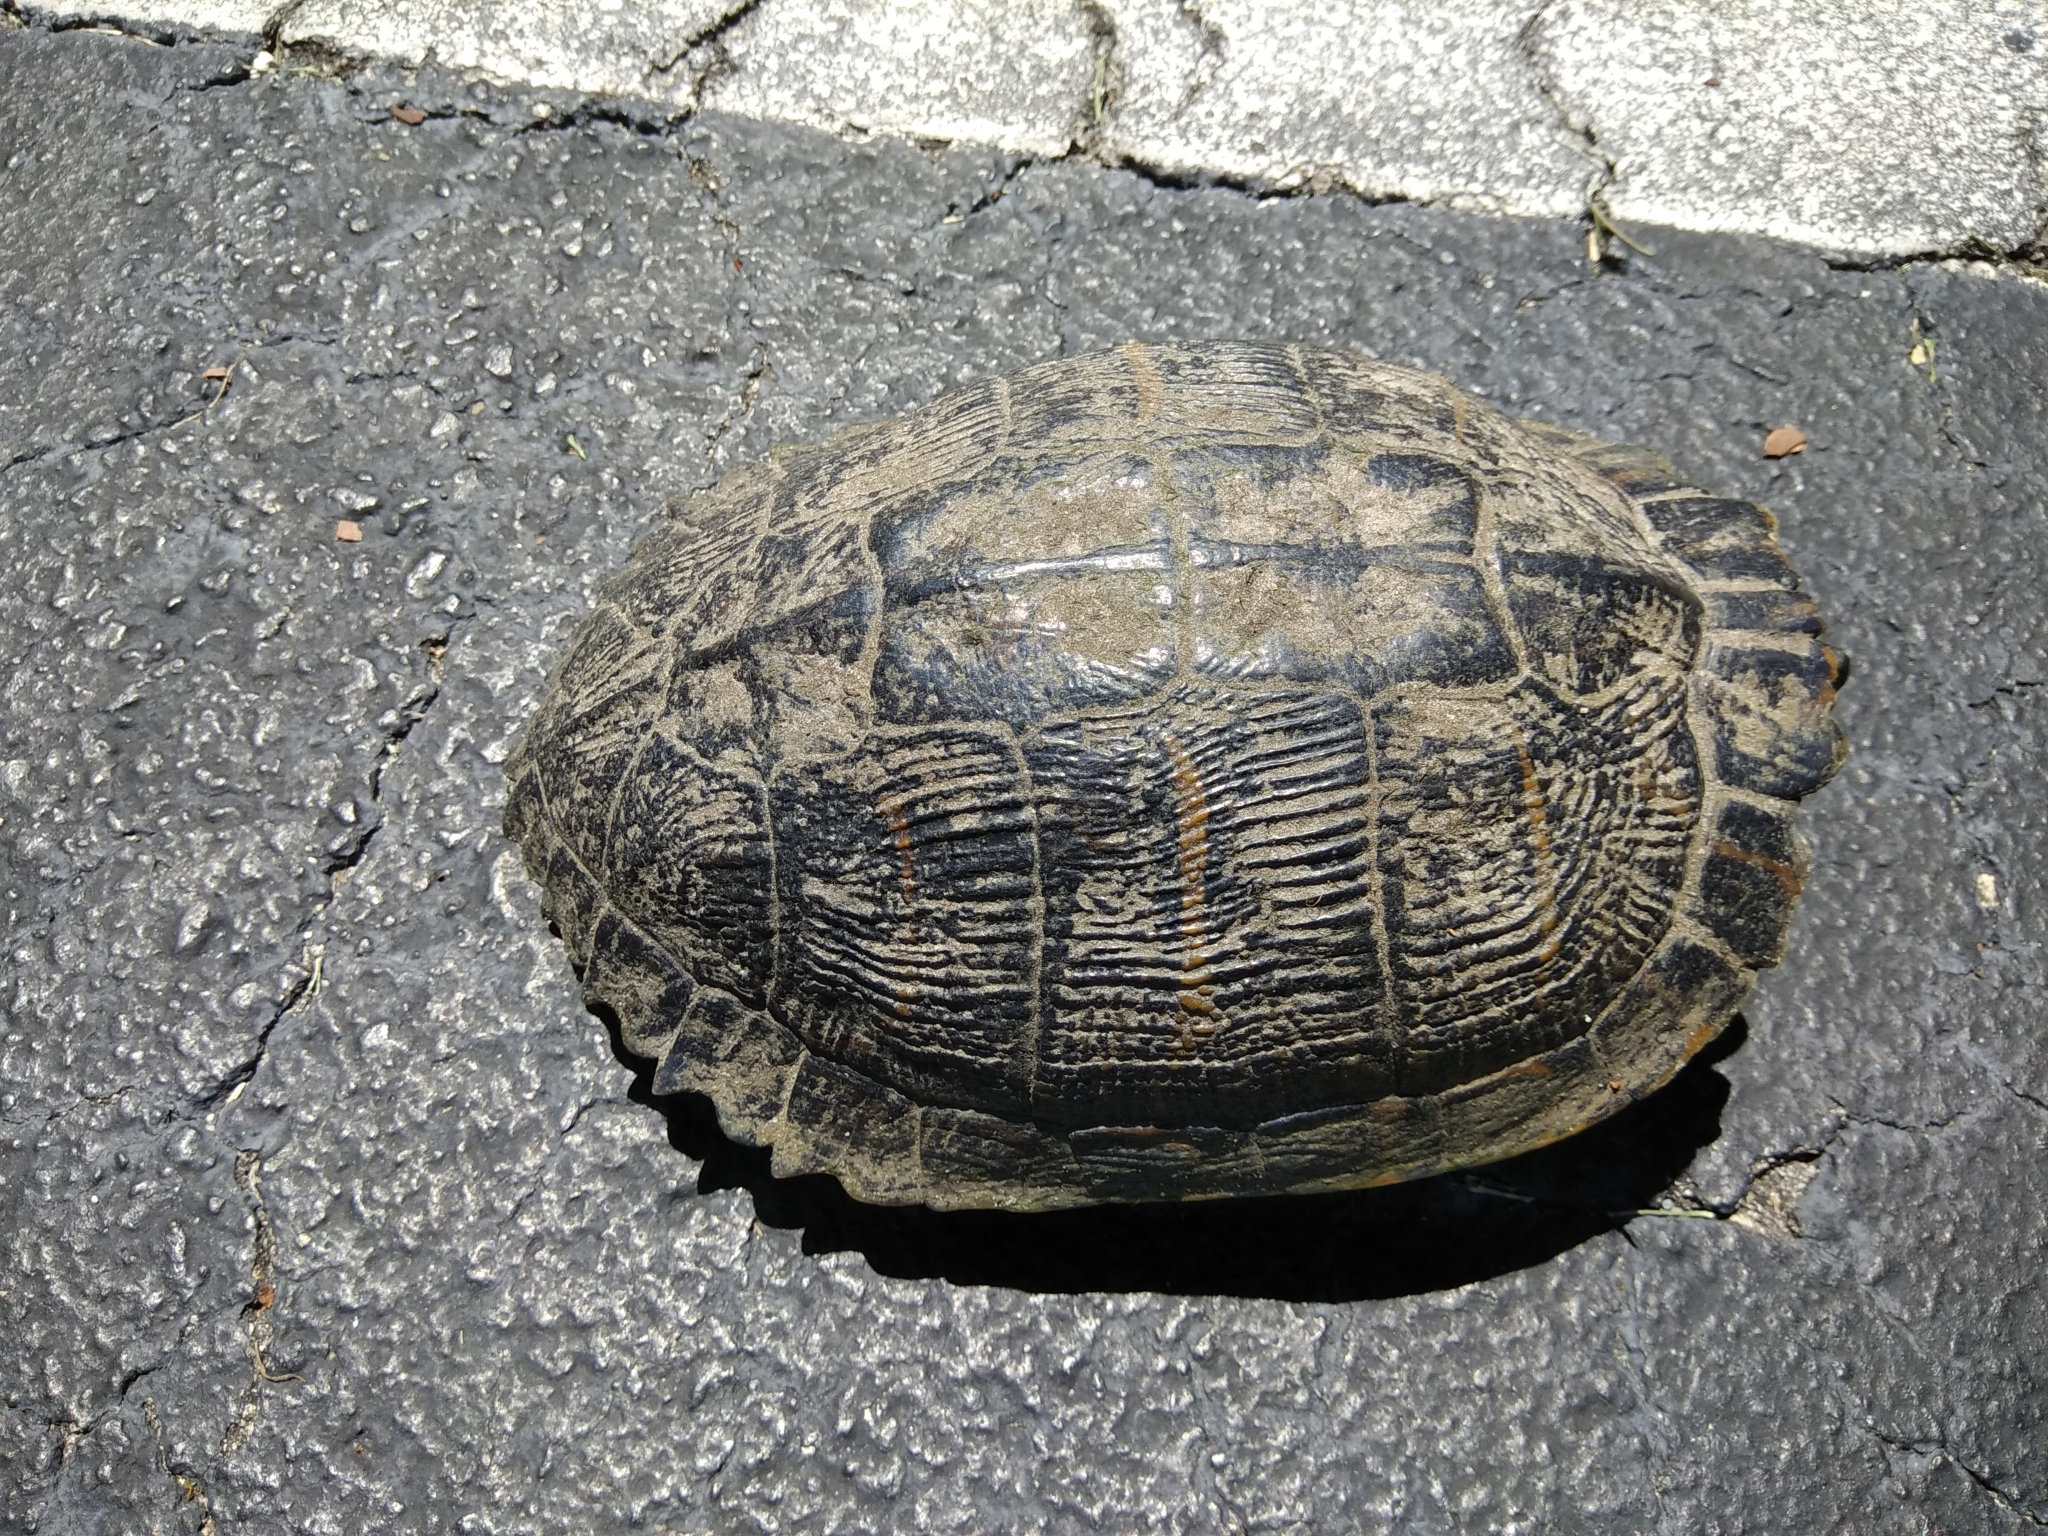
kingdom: Animalia
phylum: Chordata
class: Testudines
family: Emydidae
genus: Trachemys
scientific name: Trachemys scripta
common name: Slider
